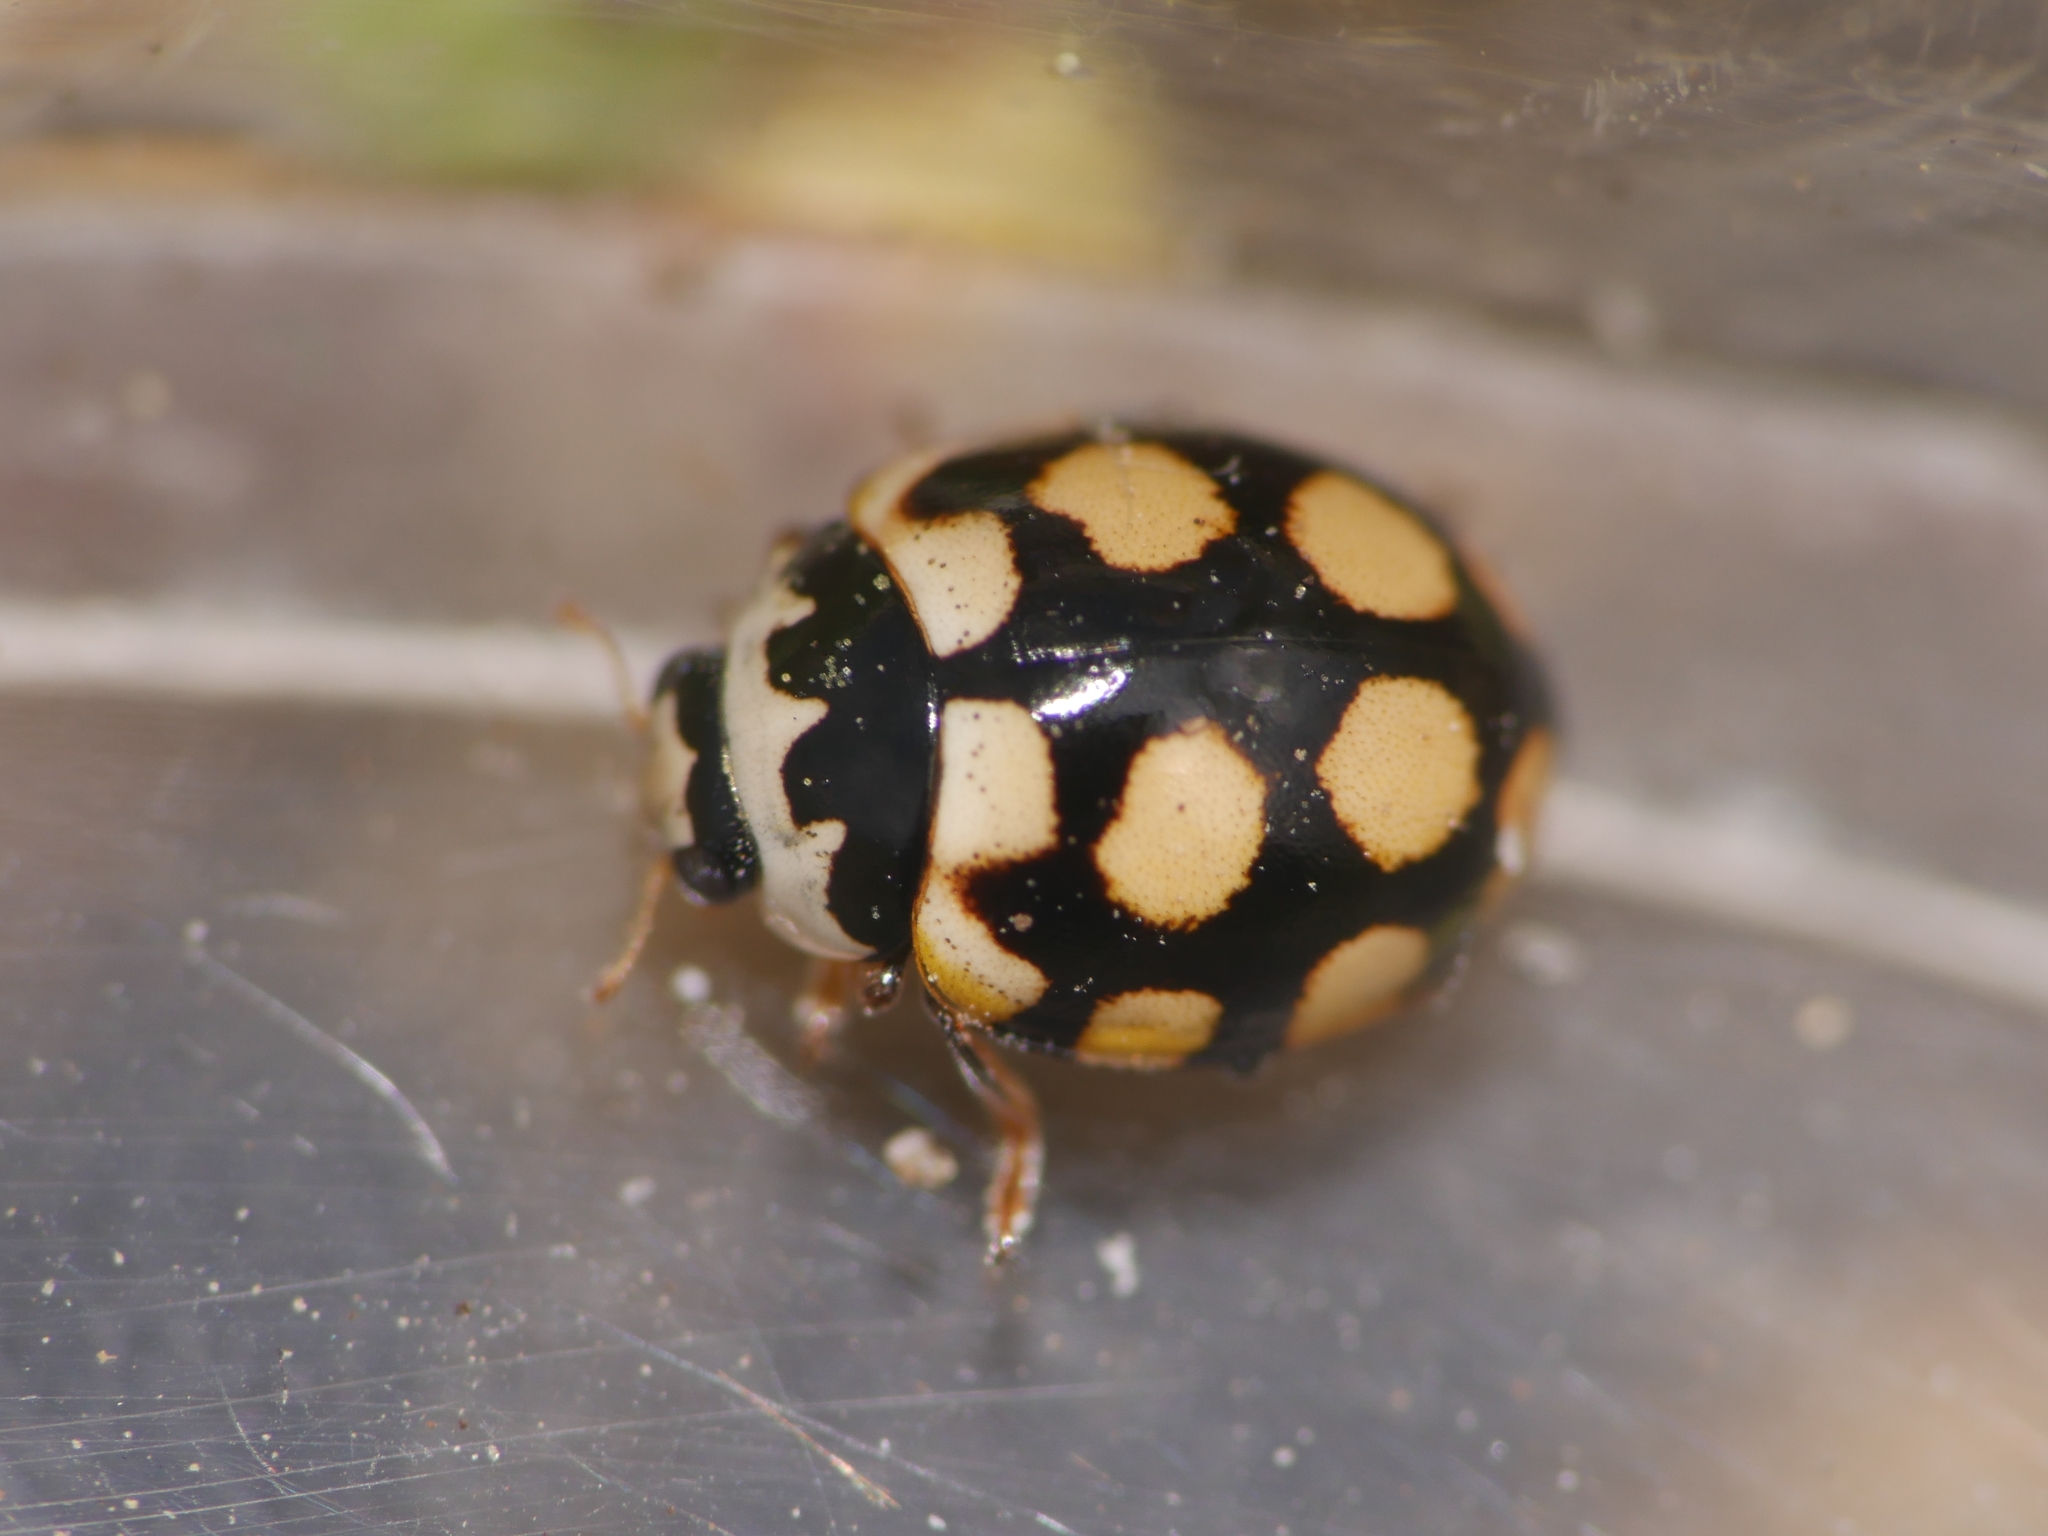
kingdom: Animalia
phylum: Arthropoda
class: Insecta
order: Coleoptera
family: Coccinellidae
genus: Coccinula
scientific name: Coccinula quatuordecimpustulata
